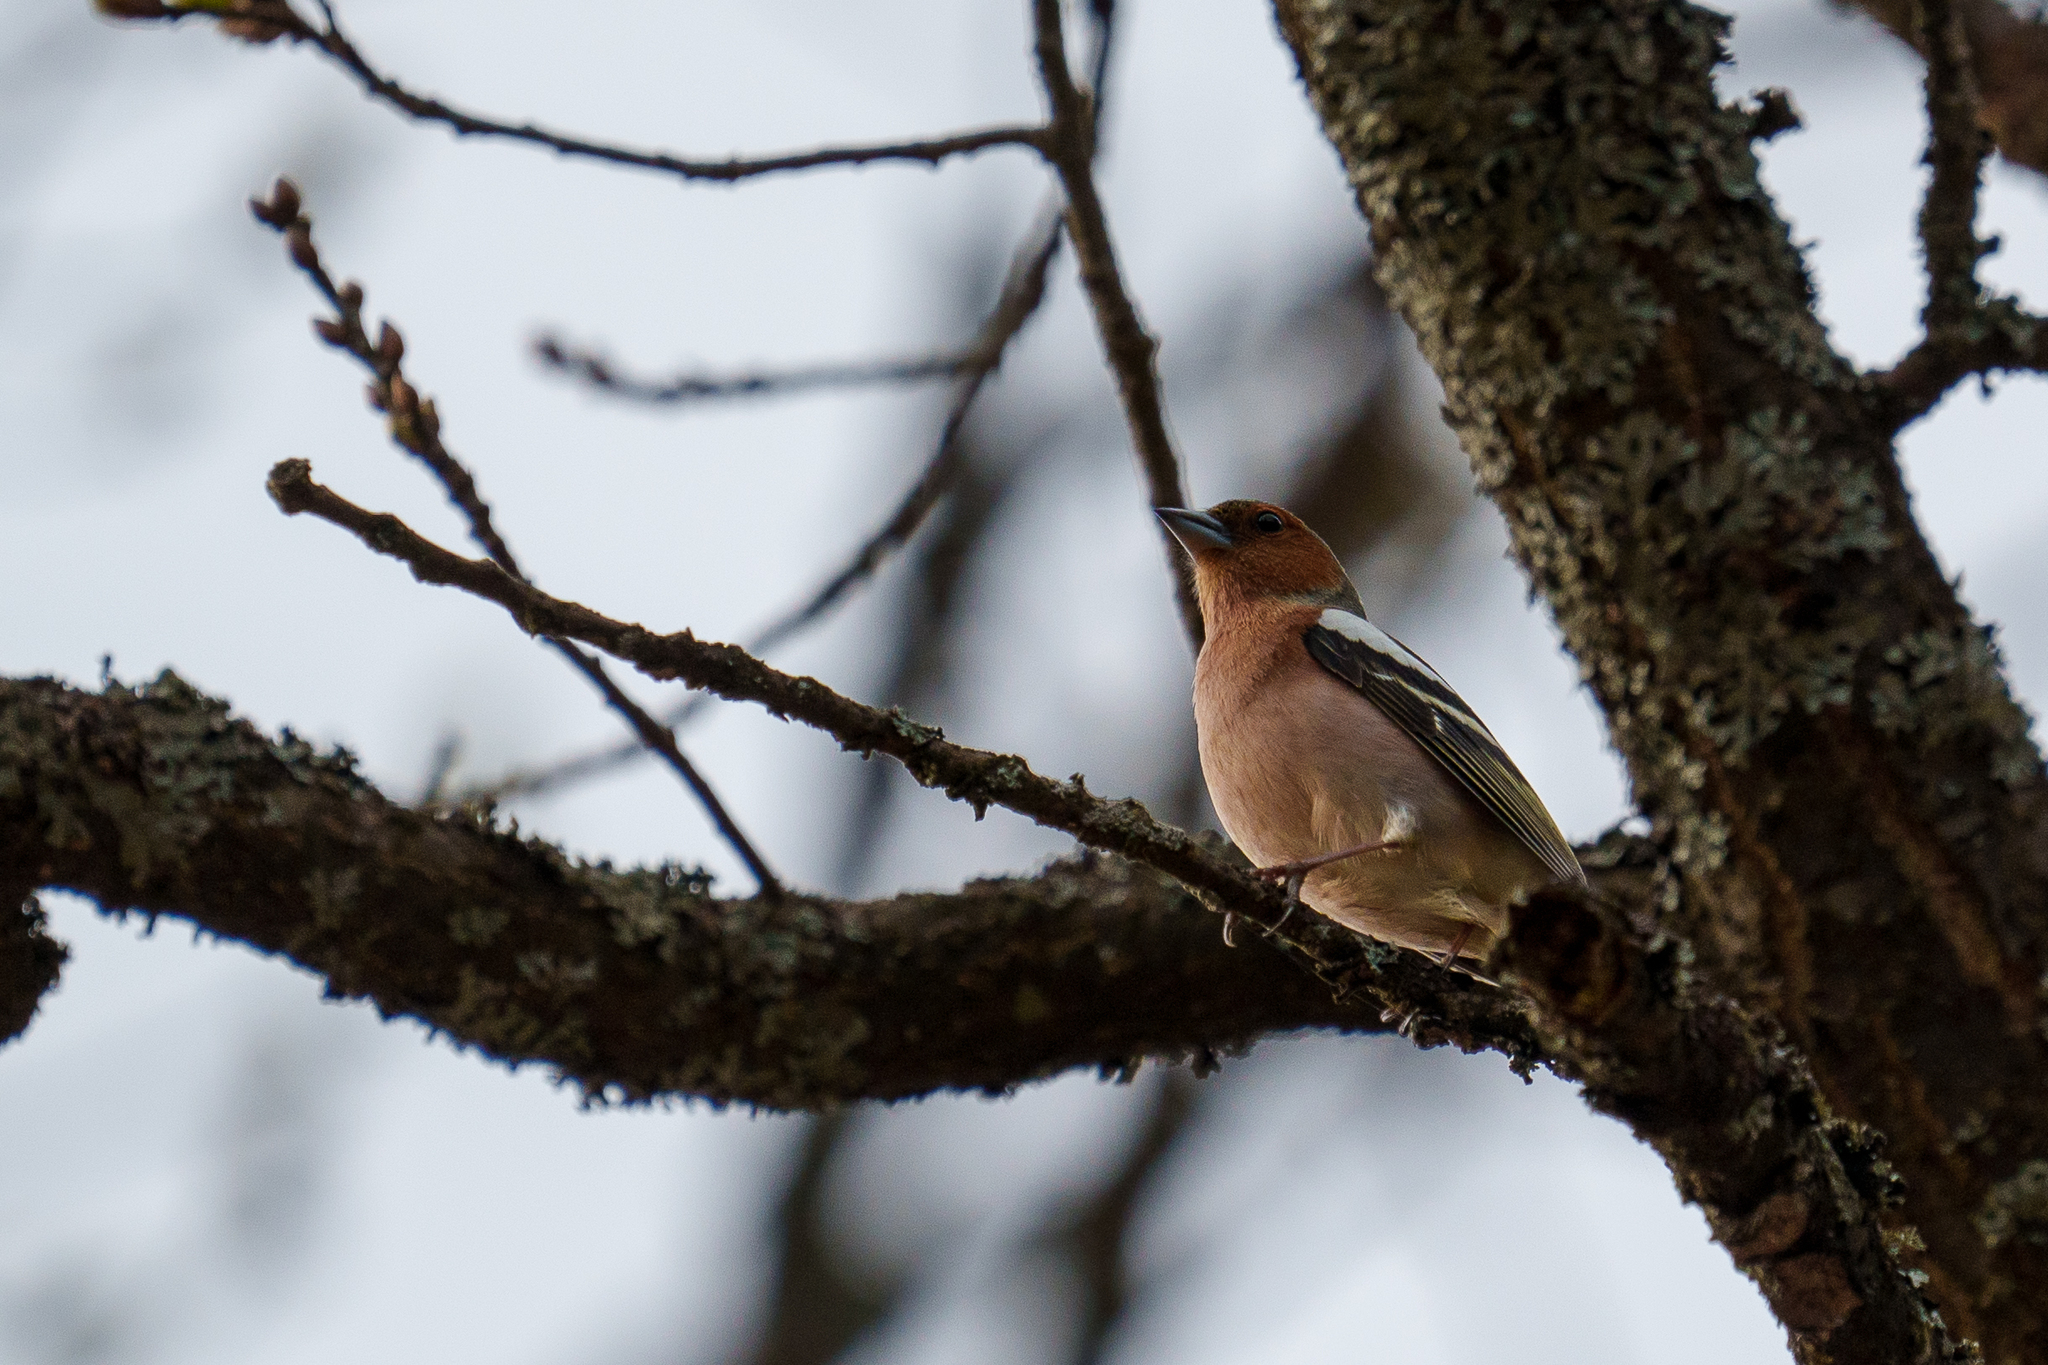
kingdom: Animalia
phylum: Chordata
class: Aves
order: Passeriformes
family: Fringillidae
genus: Fringilla
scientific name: Fringilla coelebs
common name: Common chaffinch
